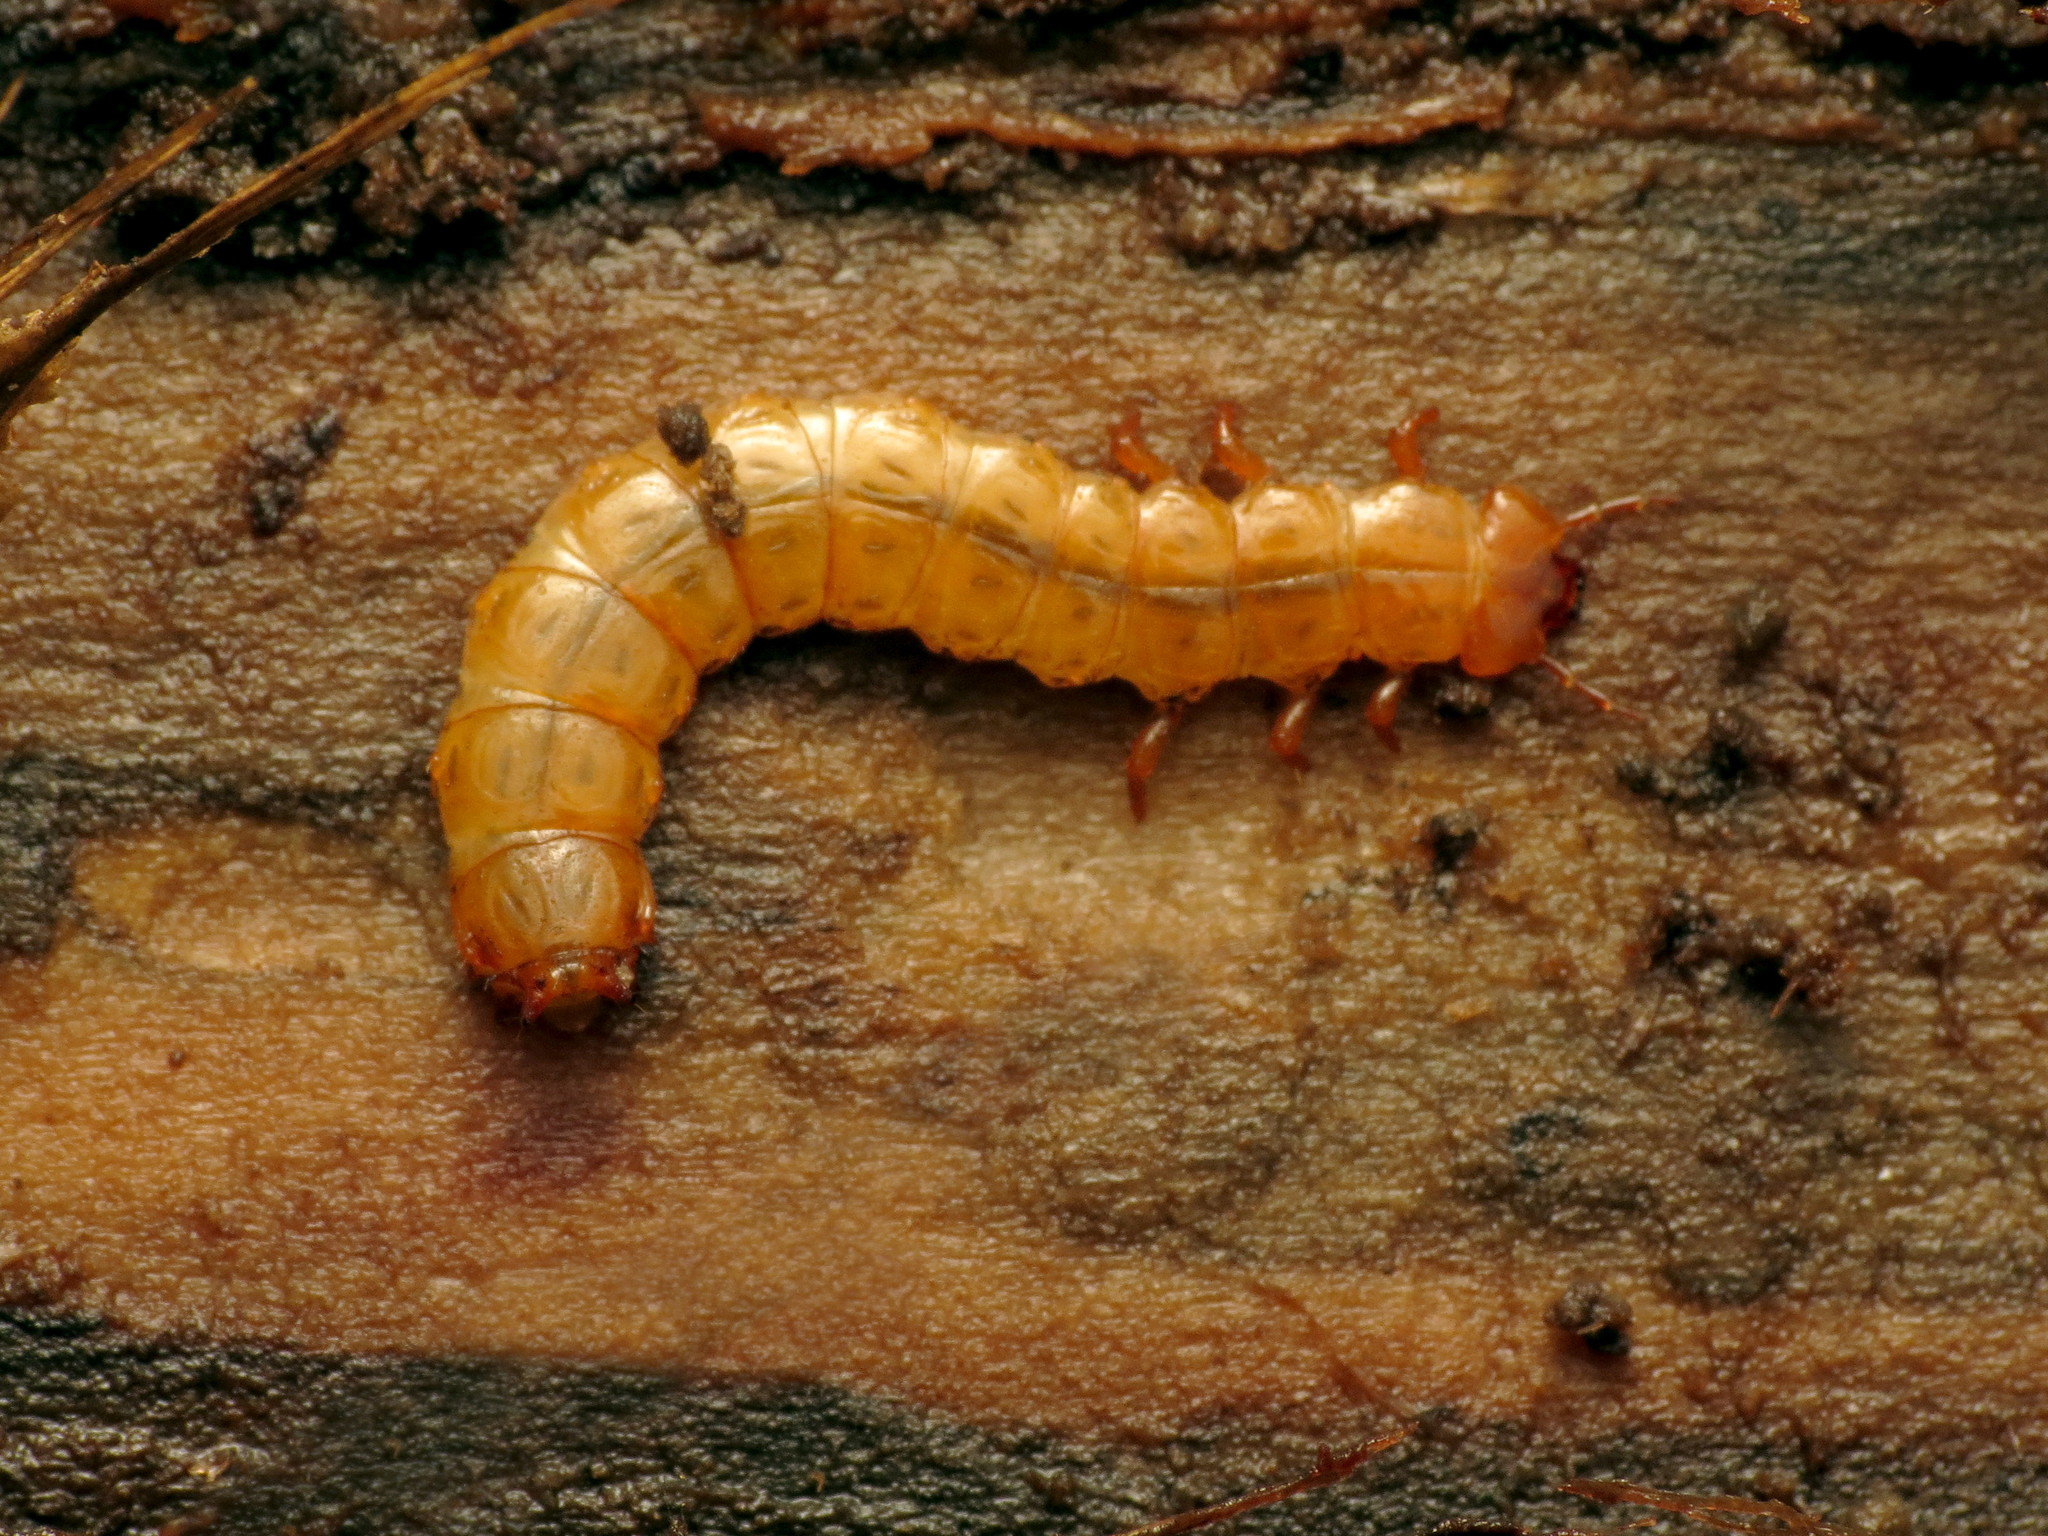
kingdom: Animalia
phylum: Arthropoda
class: Insecta
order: Coleoptera
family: Cucujidae
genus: Cucujus
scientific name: Cucujus clavipes
